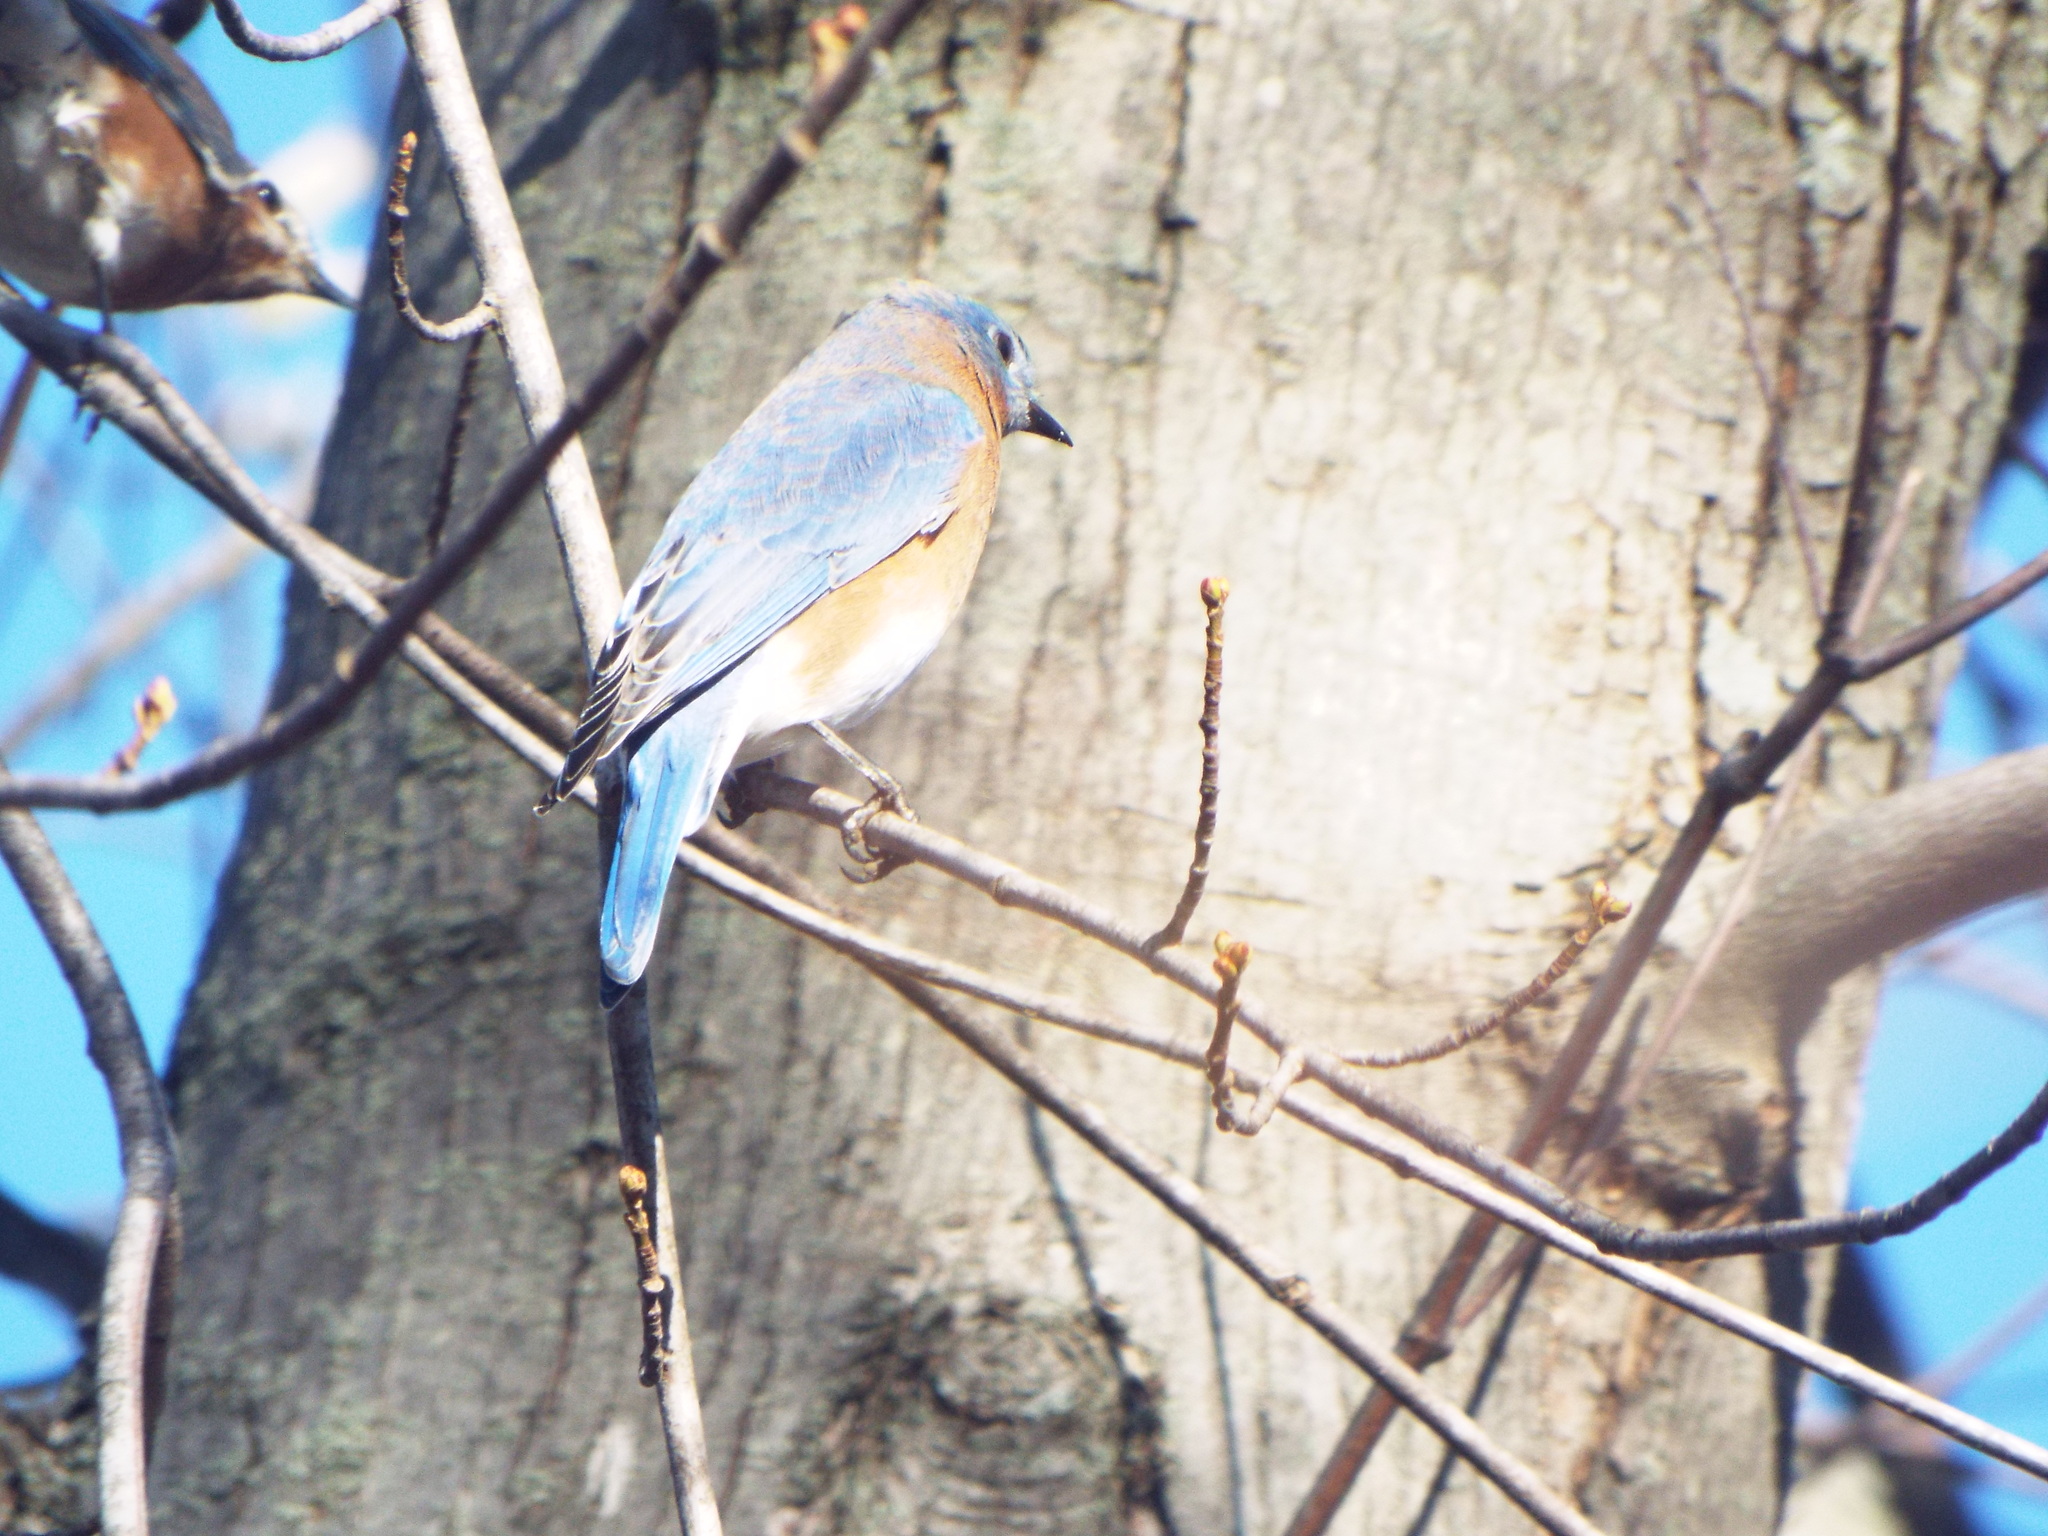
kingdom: Animalia
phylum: Chordata
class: Aves
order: Passeriformes
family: Turdidae
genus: Sialia
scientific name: Sialia sialis
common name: Eastern bluebird
